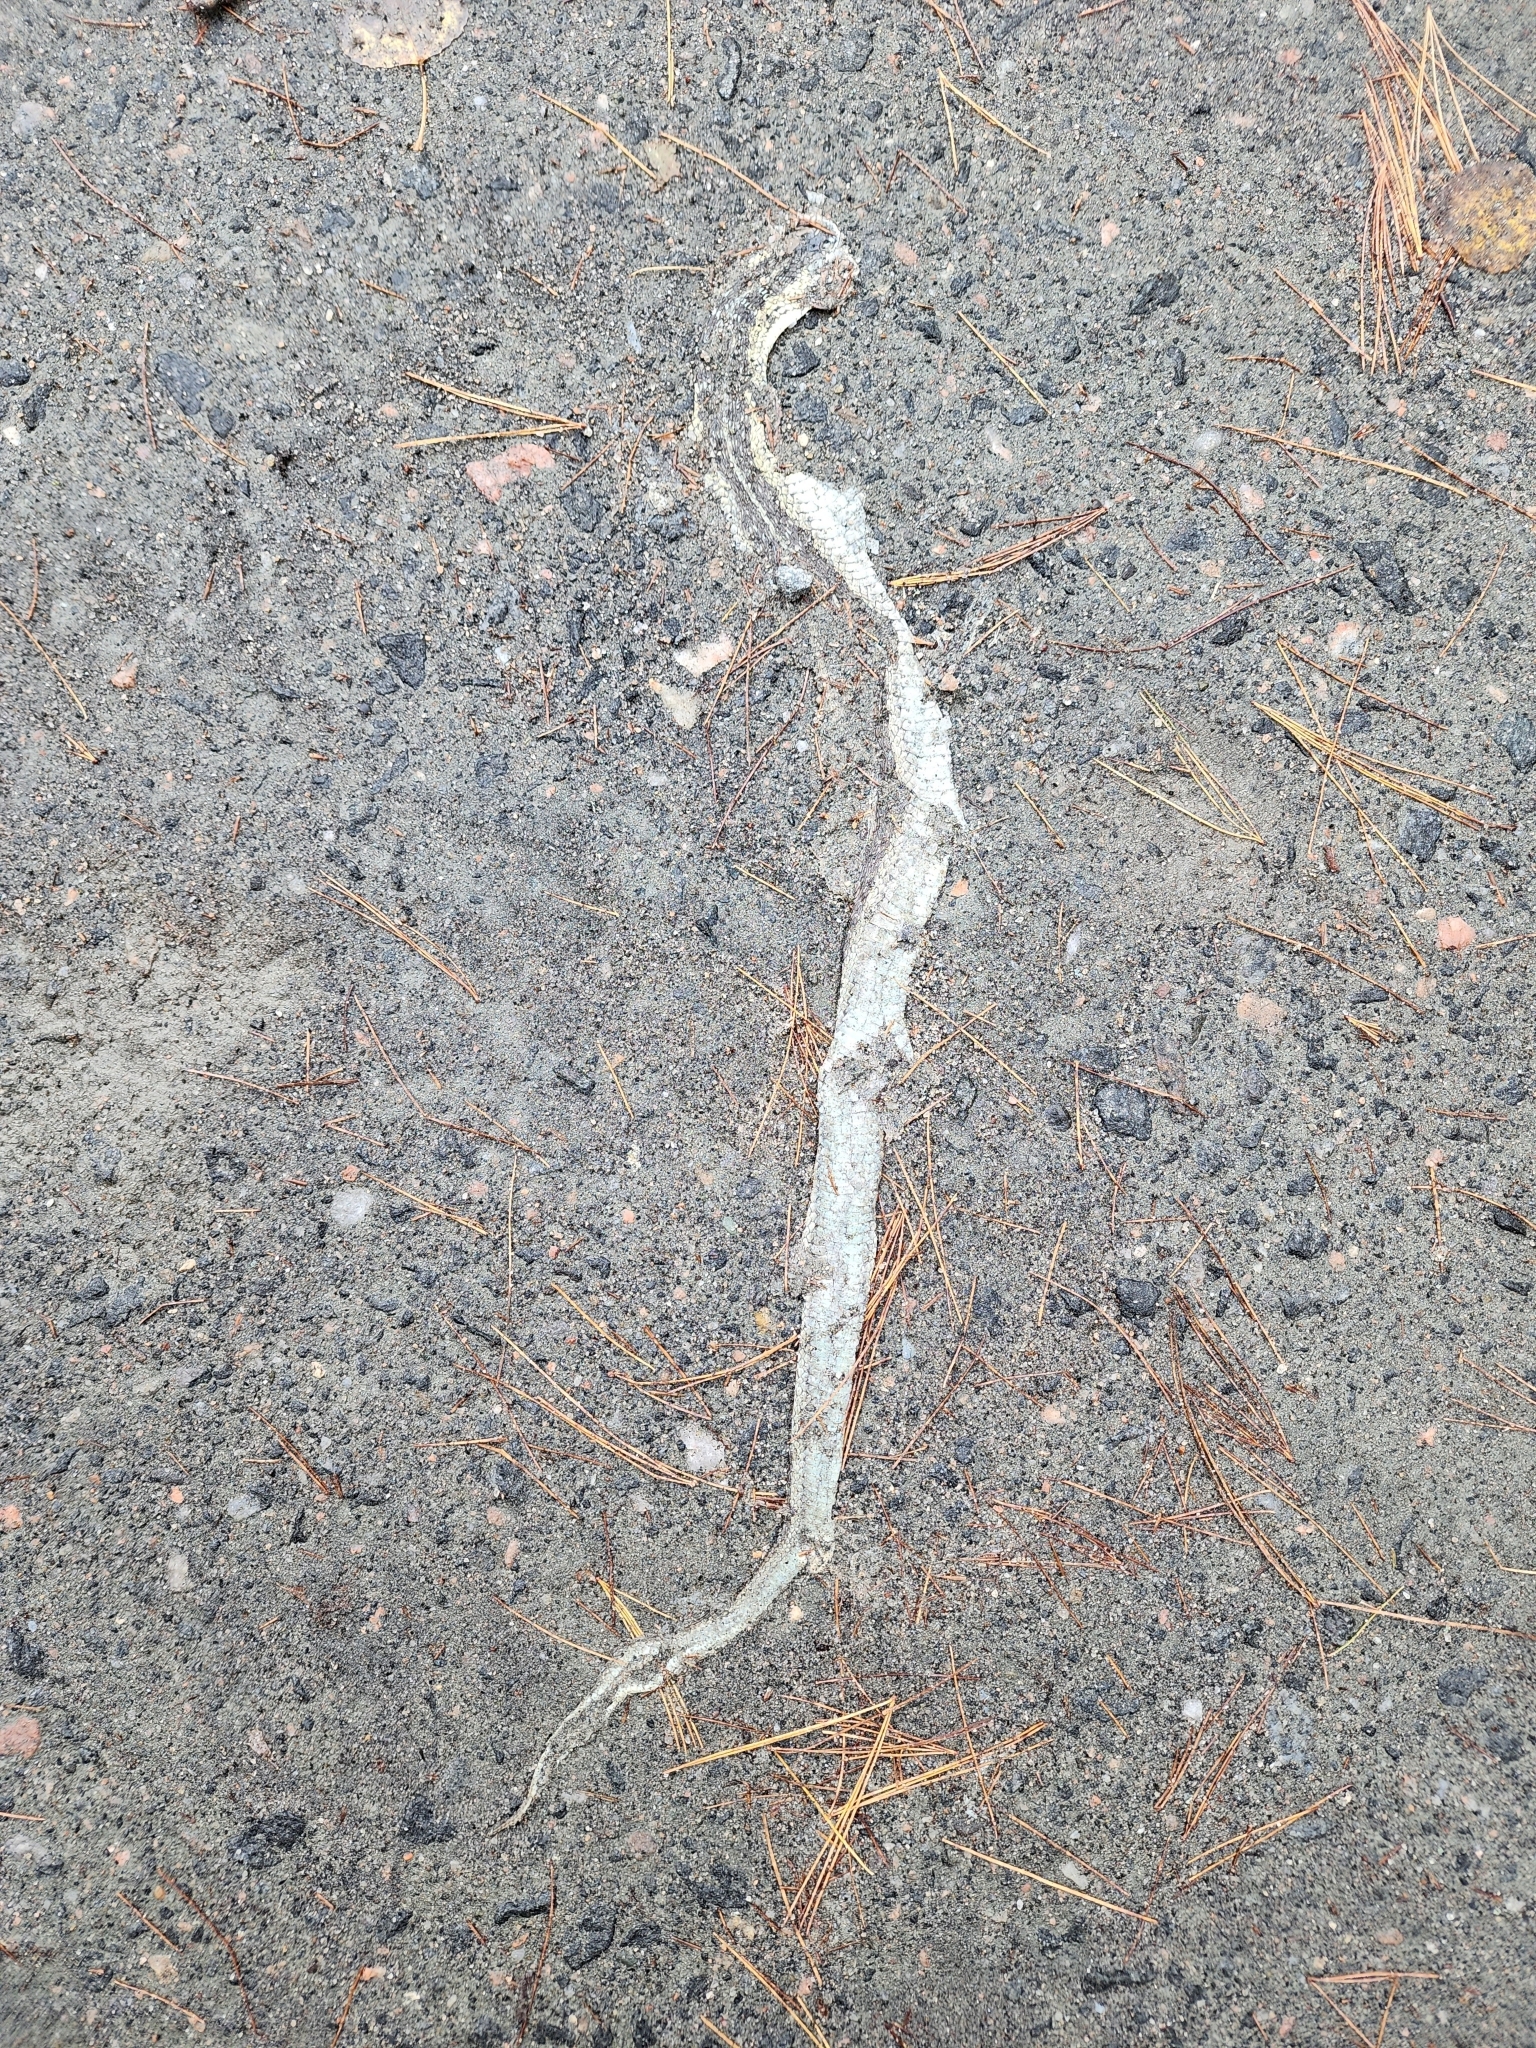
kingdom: Animalia
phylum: Chordata
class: Squamata
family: Colubridae
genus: Thamnophis
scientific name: Thamnophis sirtalis
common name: Common garter snake
